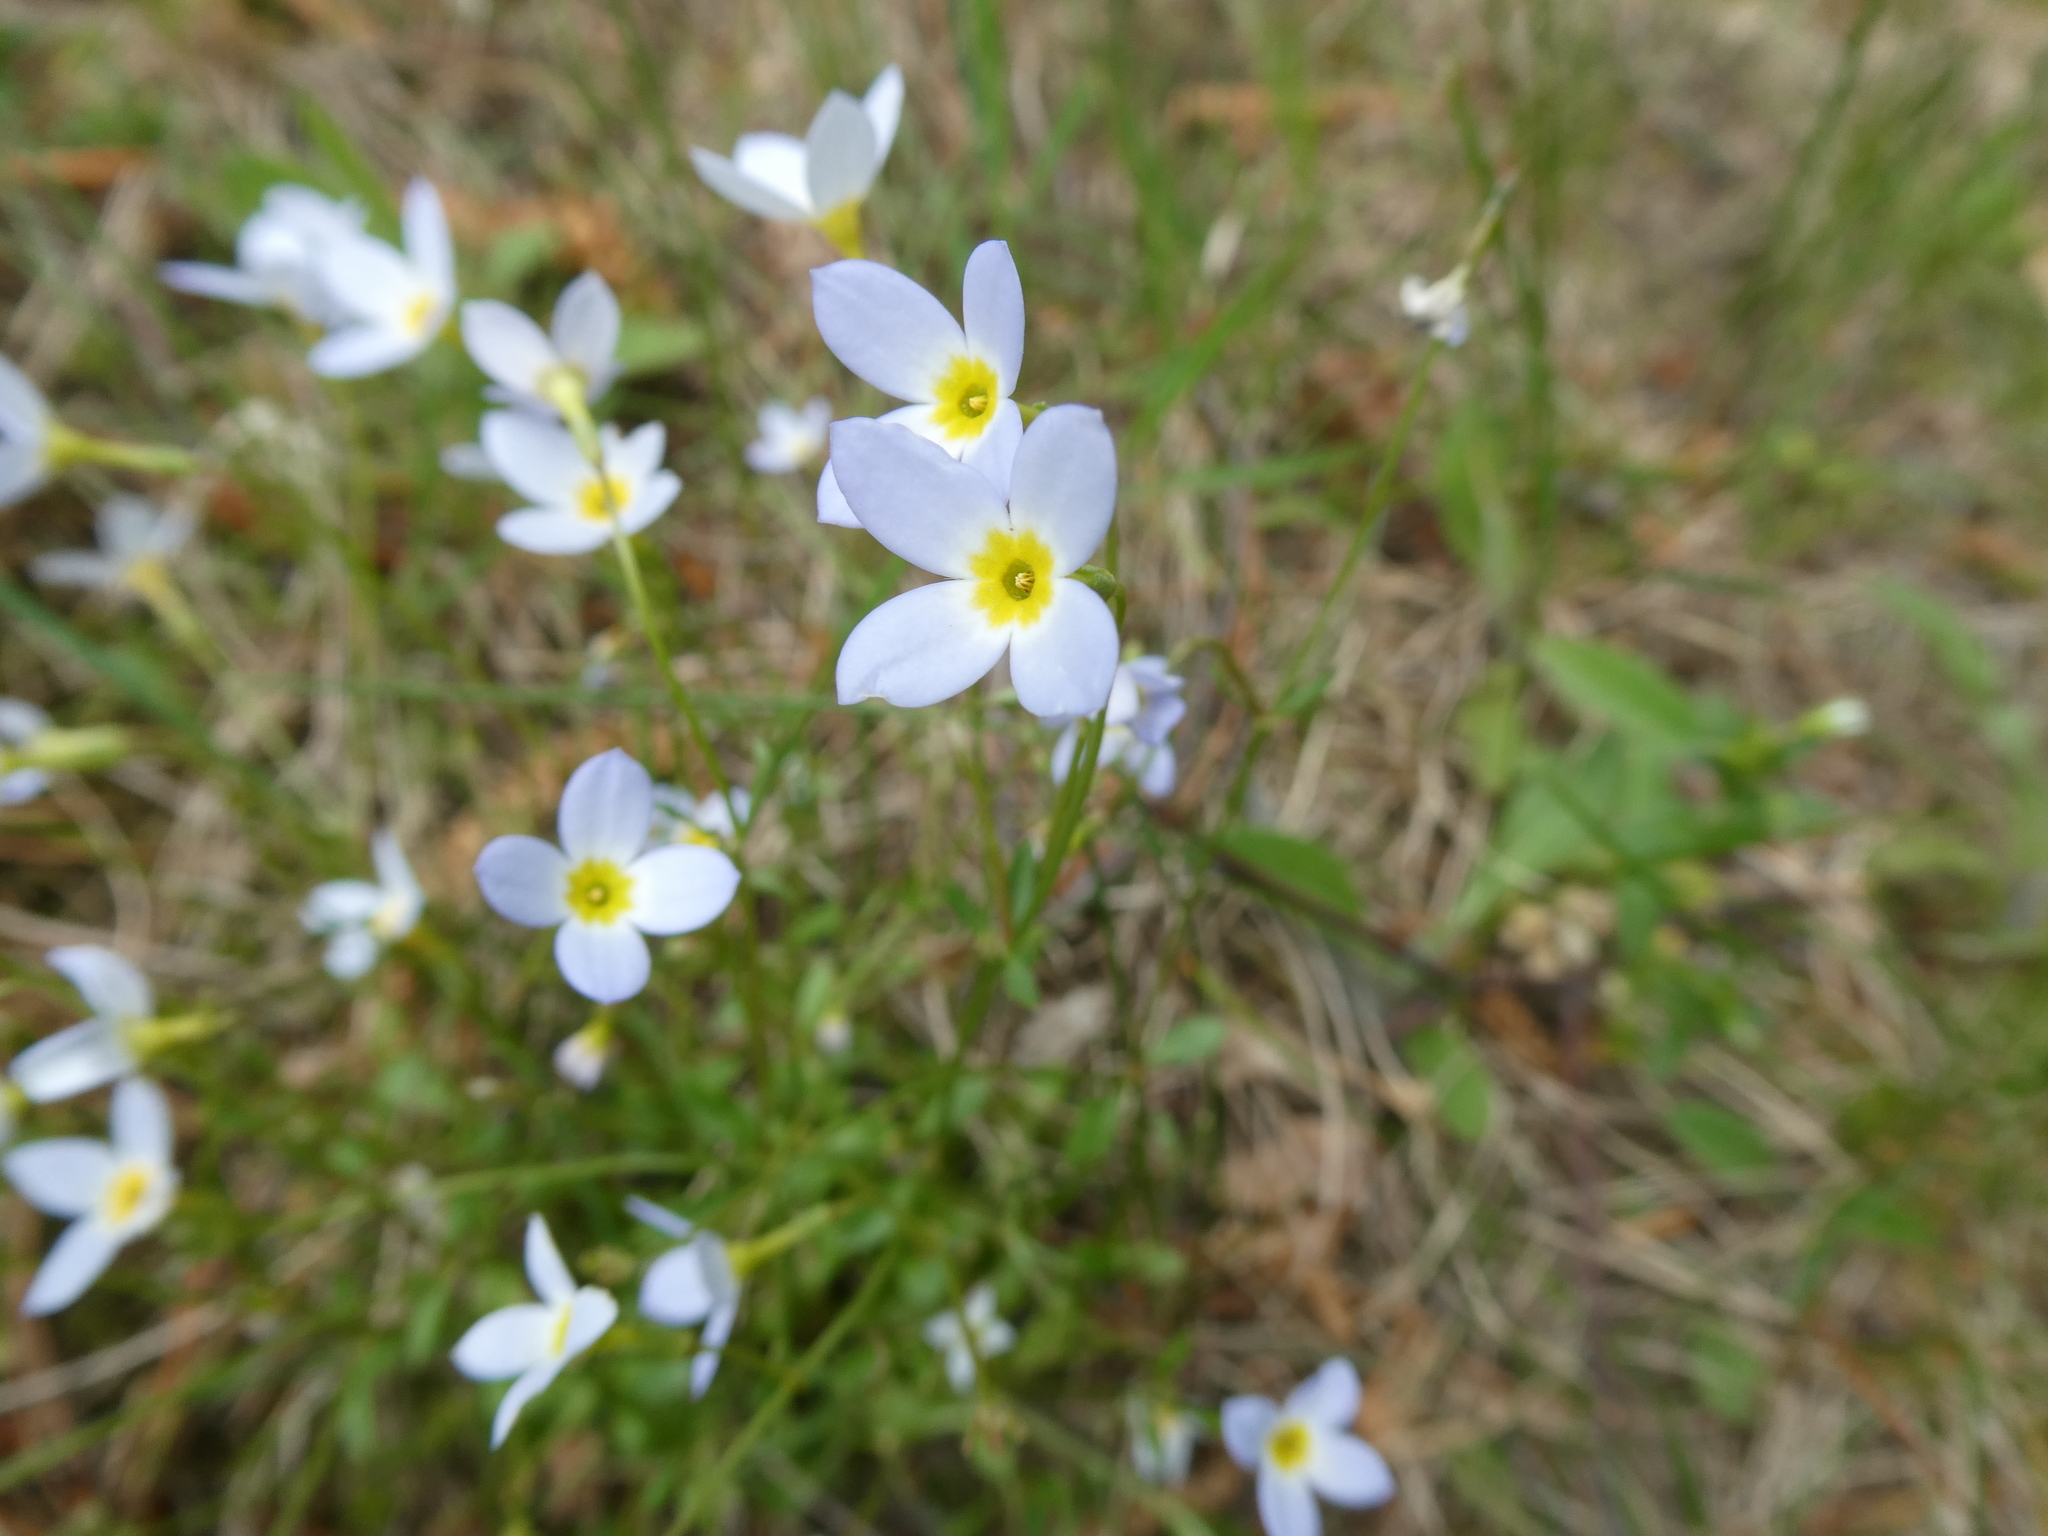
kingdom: Plantae
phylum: Tracheophyta
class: Magnoliopsida
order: Gentianales
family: Rubiaceae
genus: Houstonia
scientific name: Houstonia caerulea
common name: Bluets
